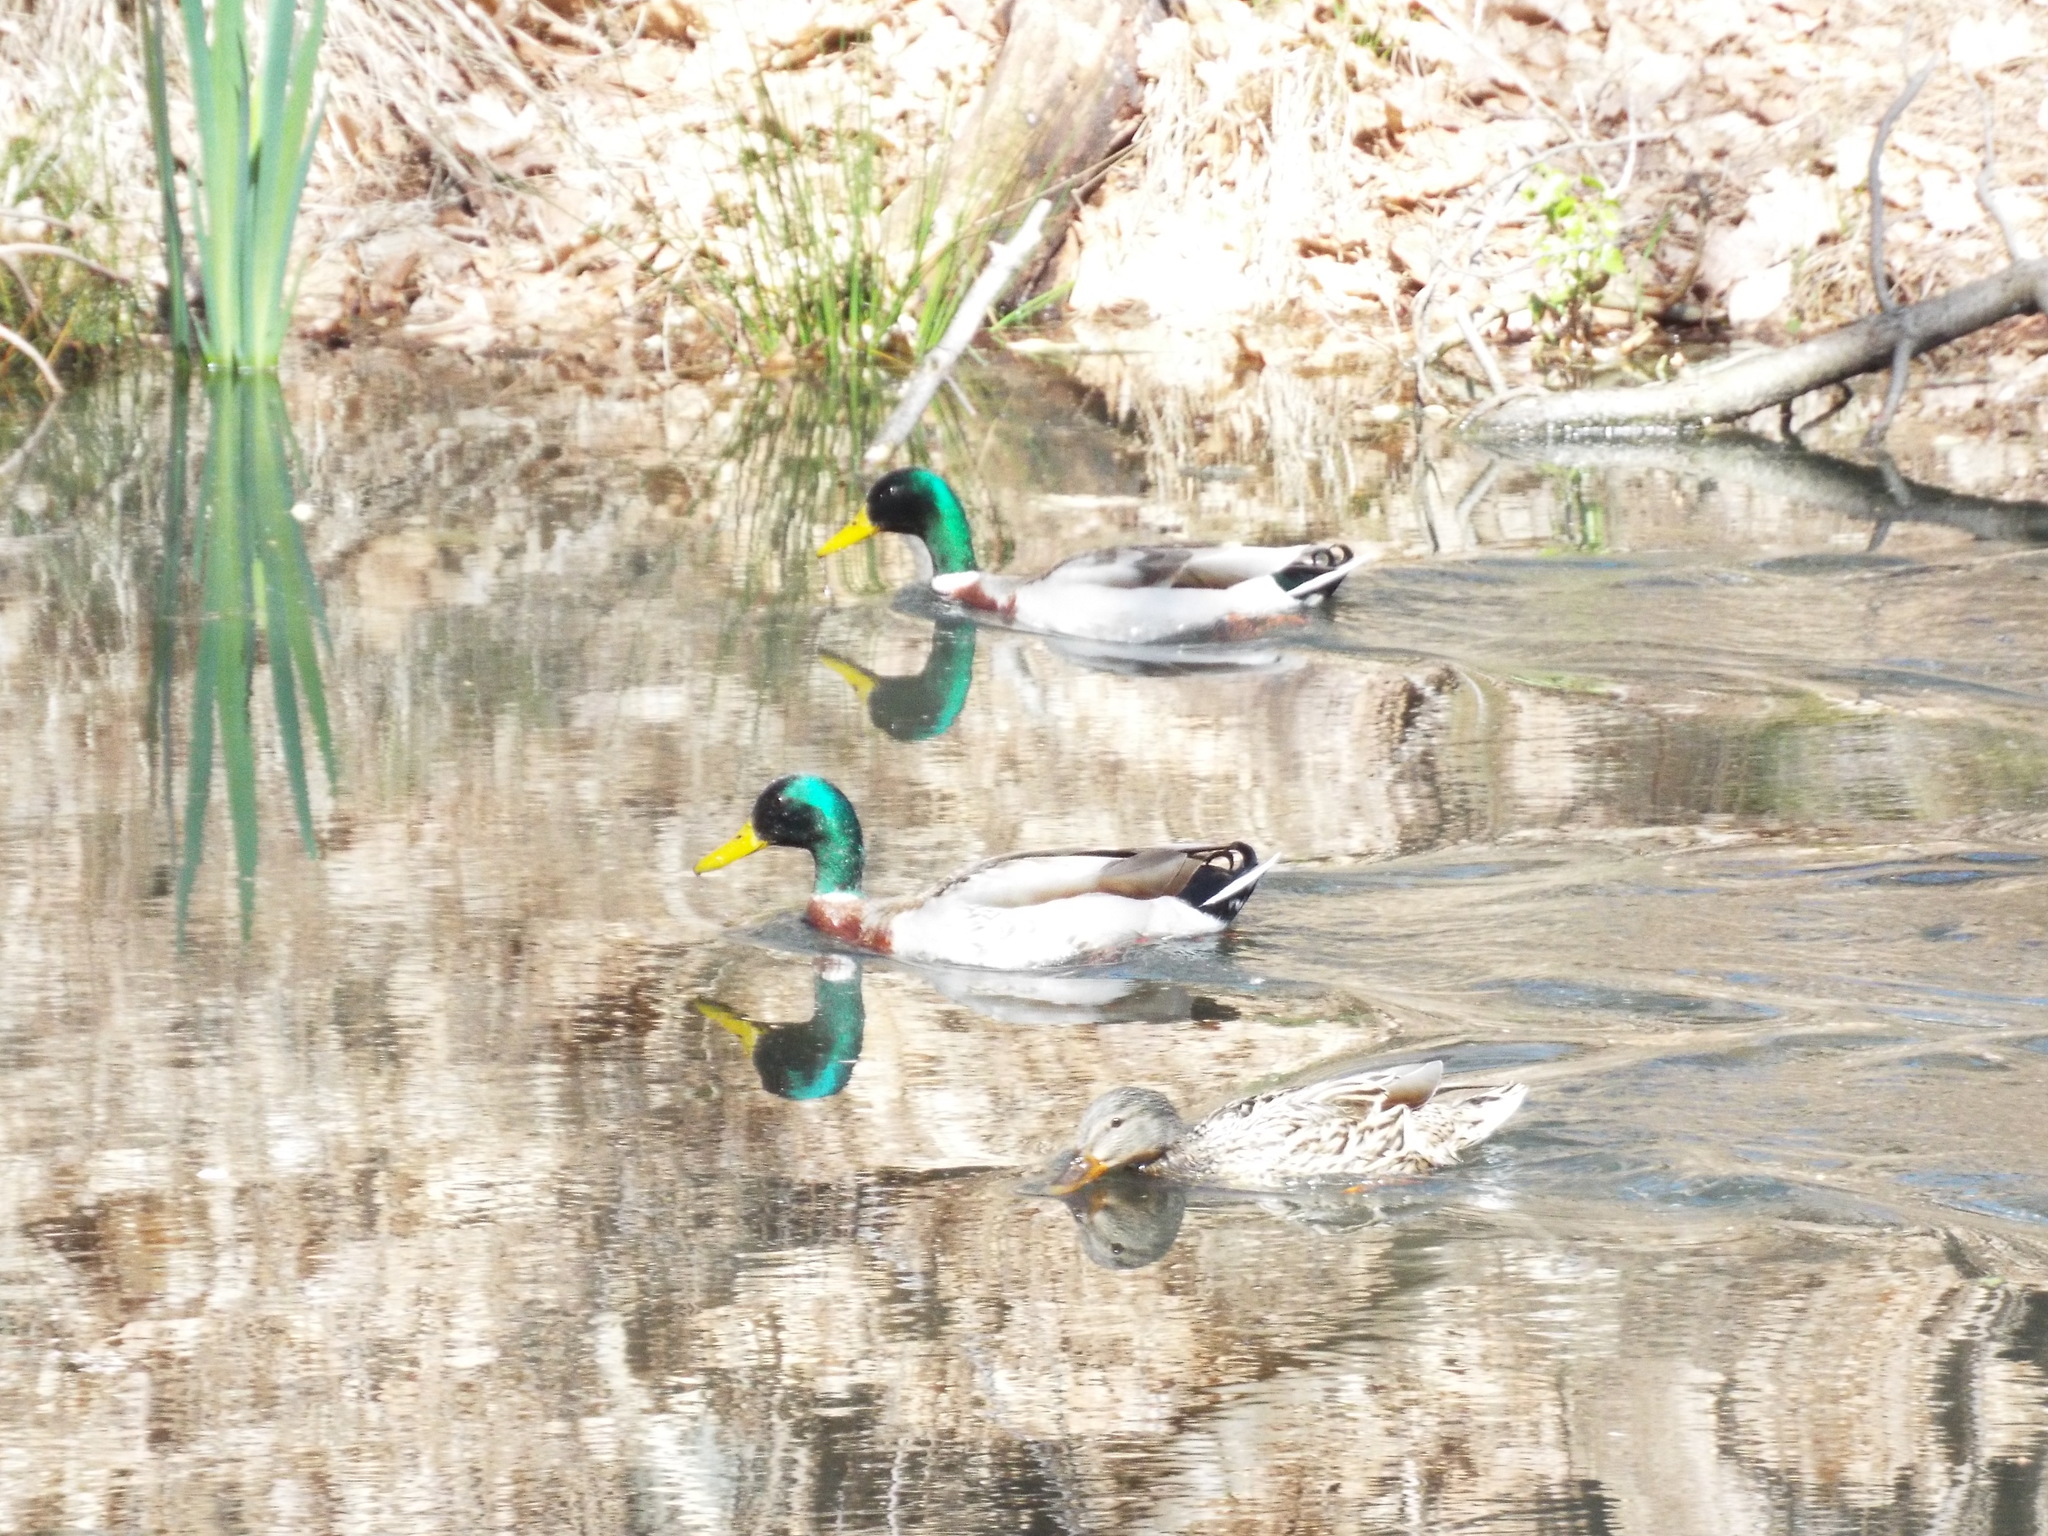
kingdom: Animalia
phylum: Chordata
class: Aves
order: Anseriformes
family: Anatidae
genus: Anas
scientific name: Anas platyrhynchos
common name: Mallard
